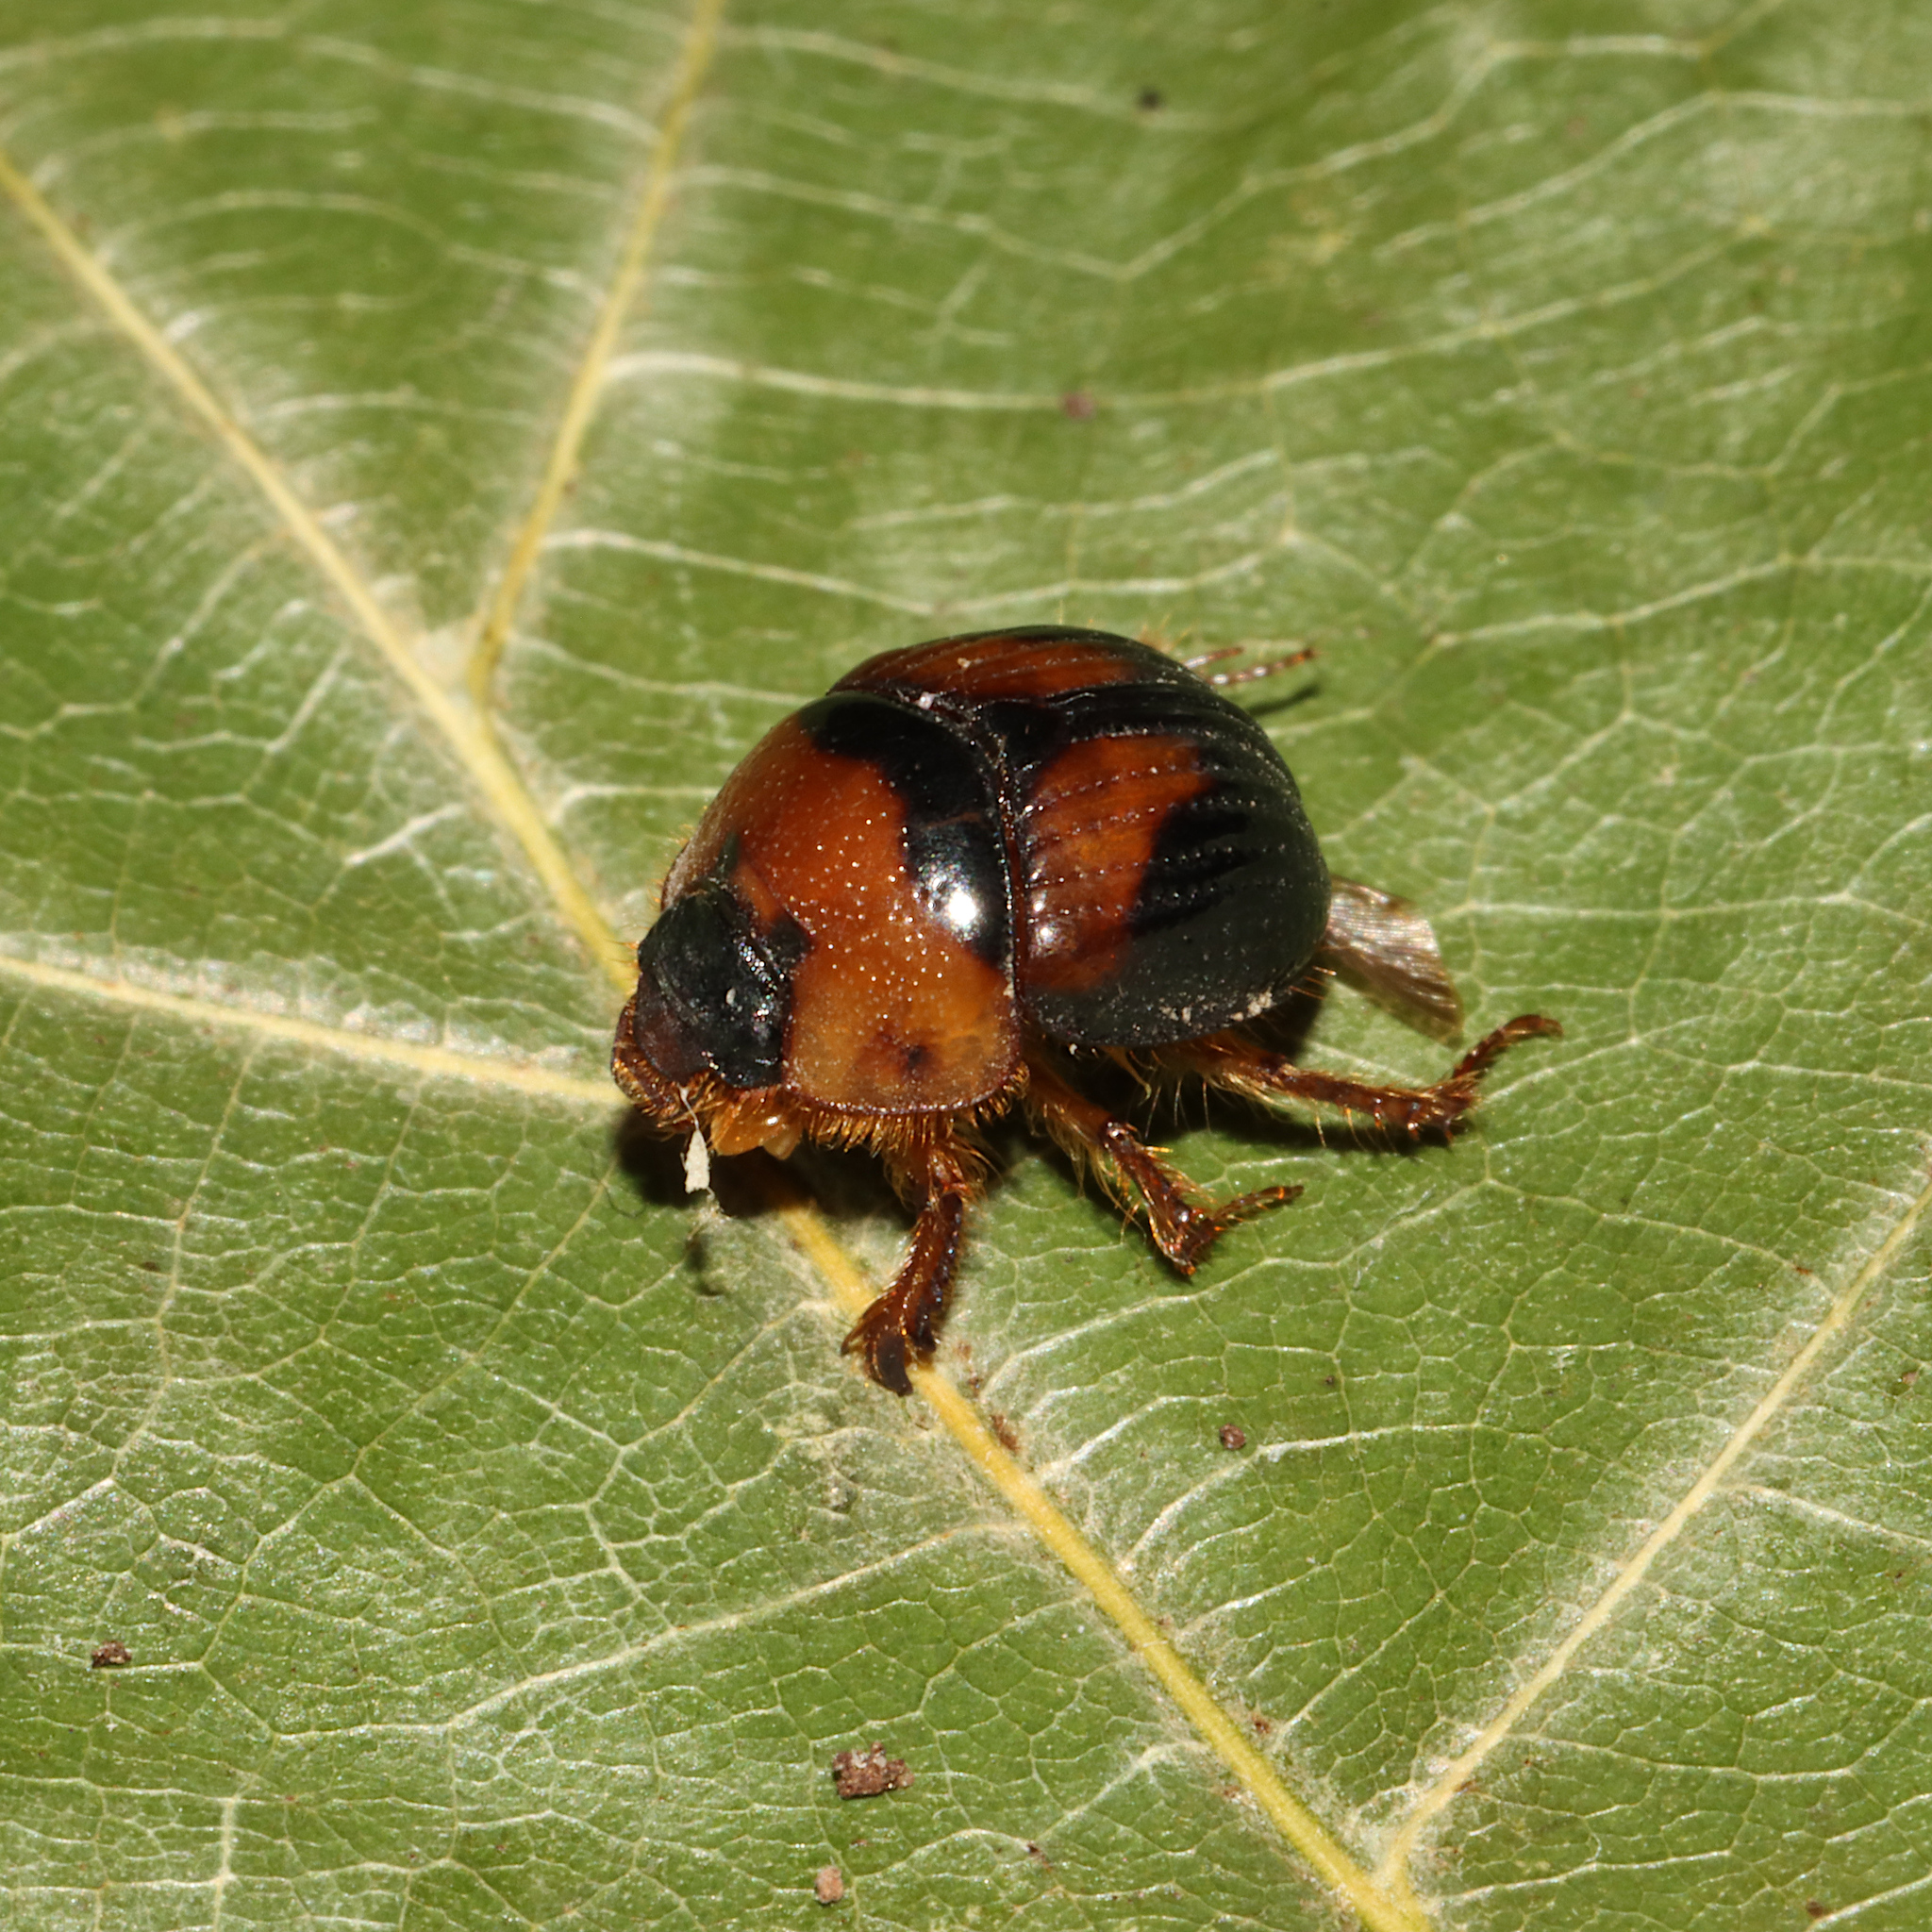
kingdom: Animalia
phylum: Arthropoda
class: Insecta
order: Coleoptera
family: Geotrupidae
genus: Bolbocerosoma
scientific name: Bolbocerosoma lepidissimum
